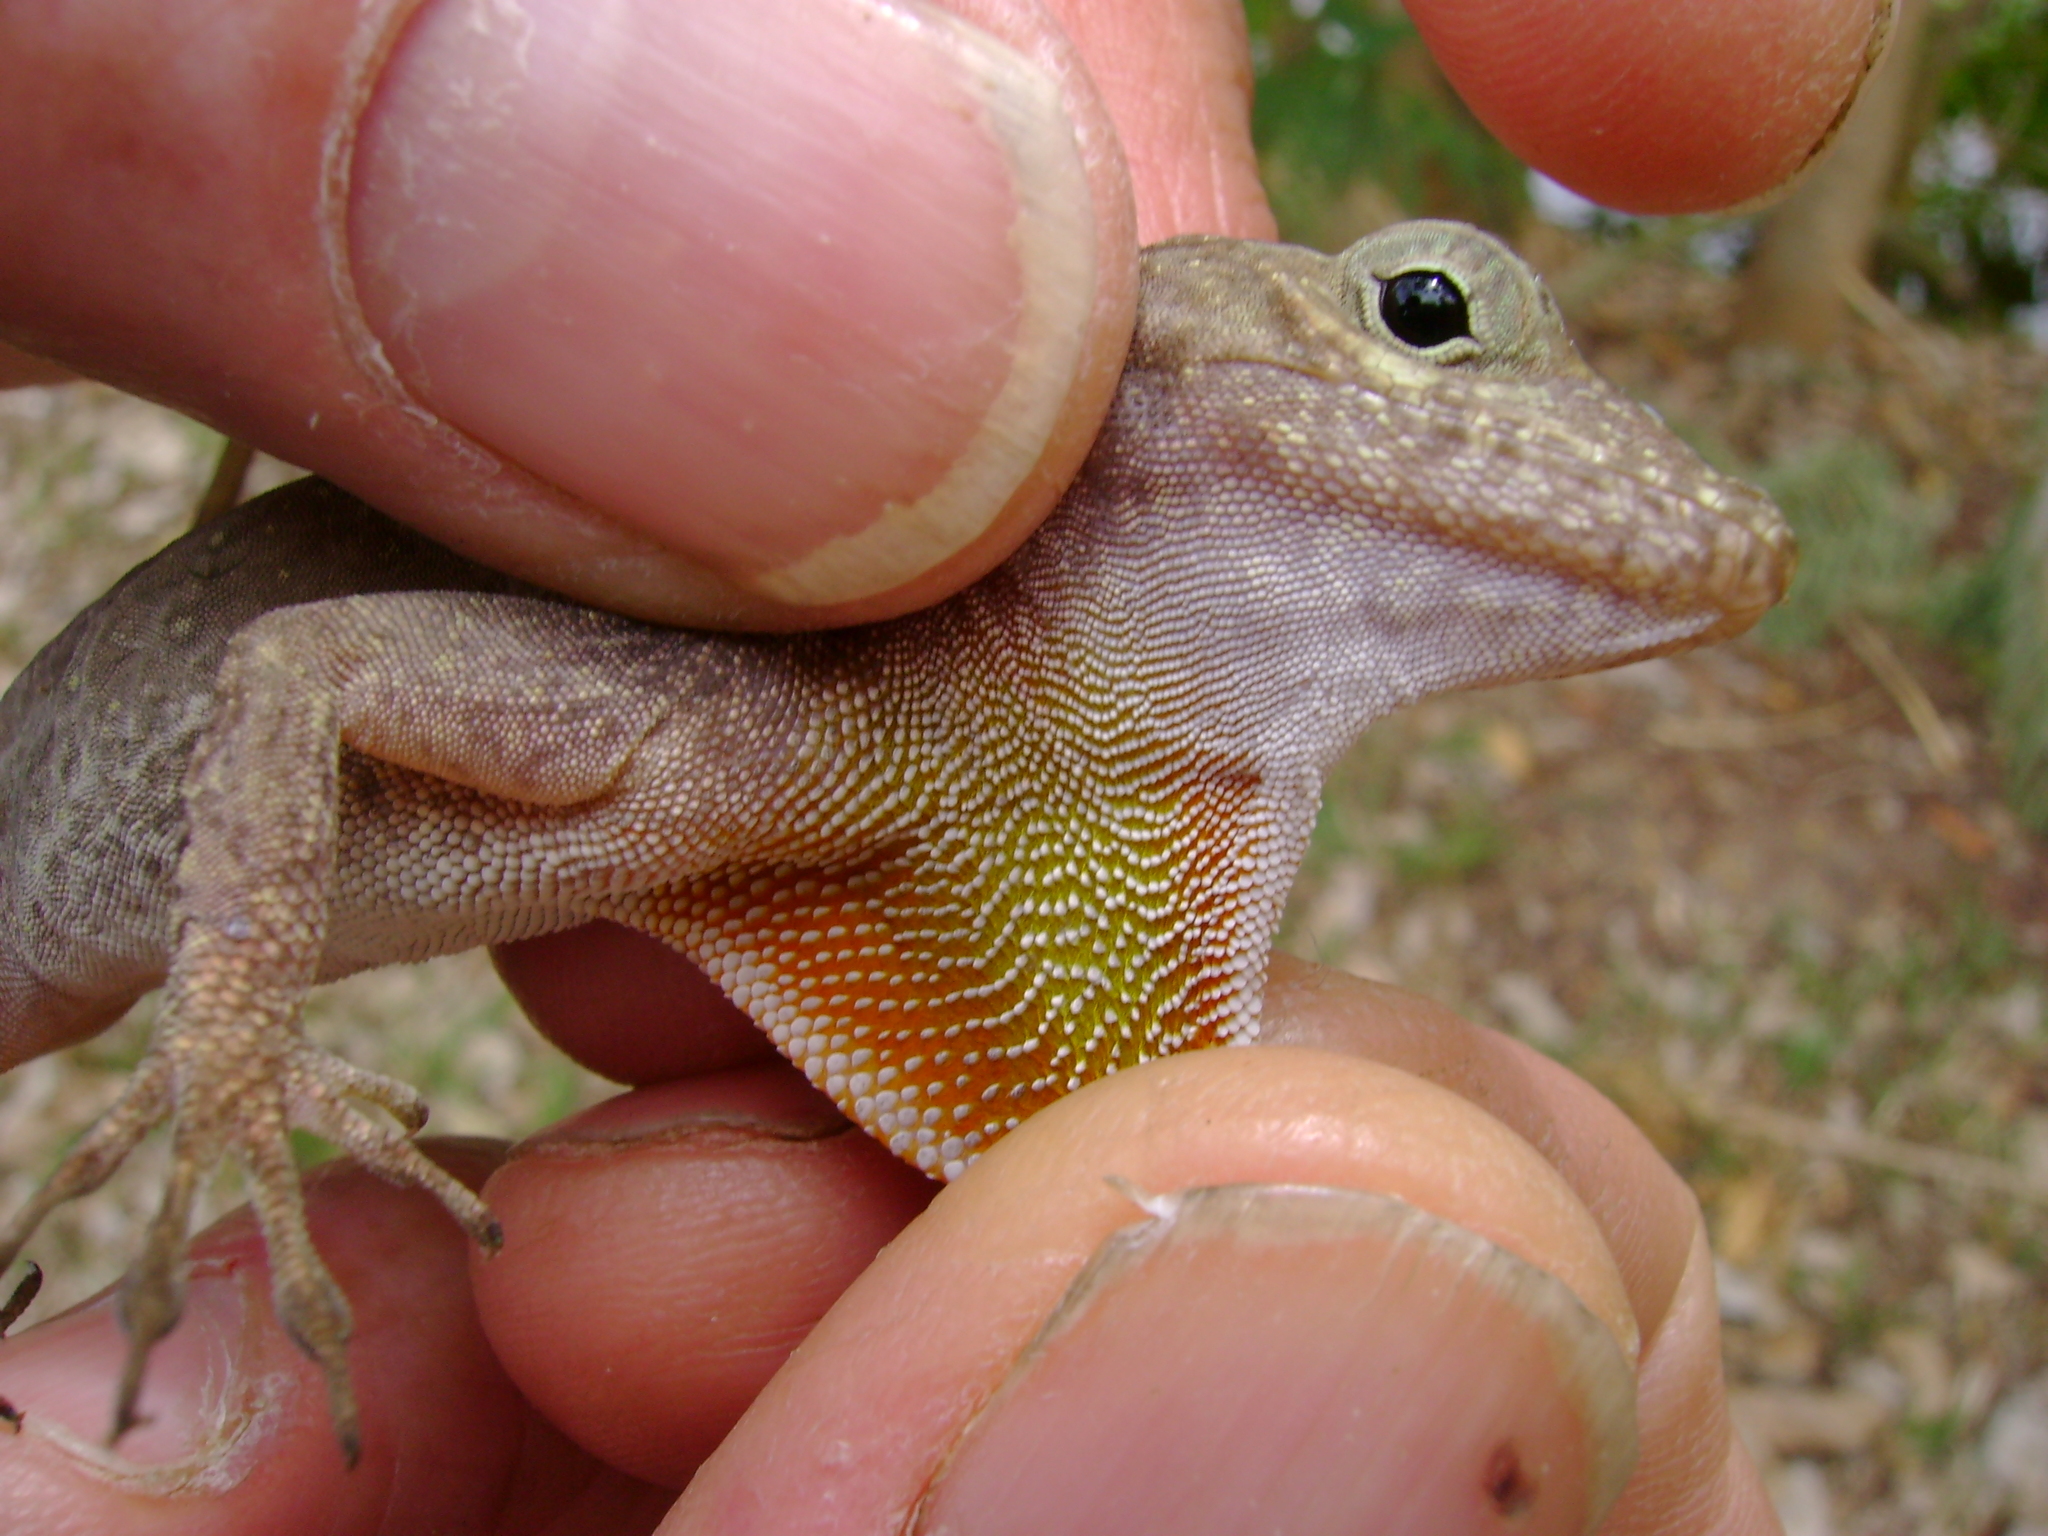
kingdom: Animalia
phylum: Chordata
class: Squamata
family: Dactyloidae
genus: Anolis
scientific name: Anolis cristatellus
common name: Crested anole
